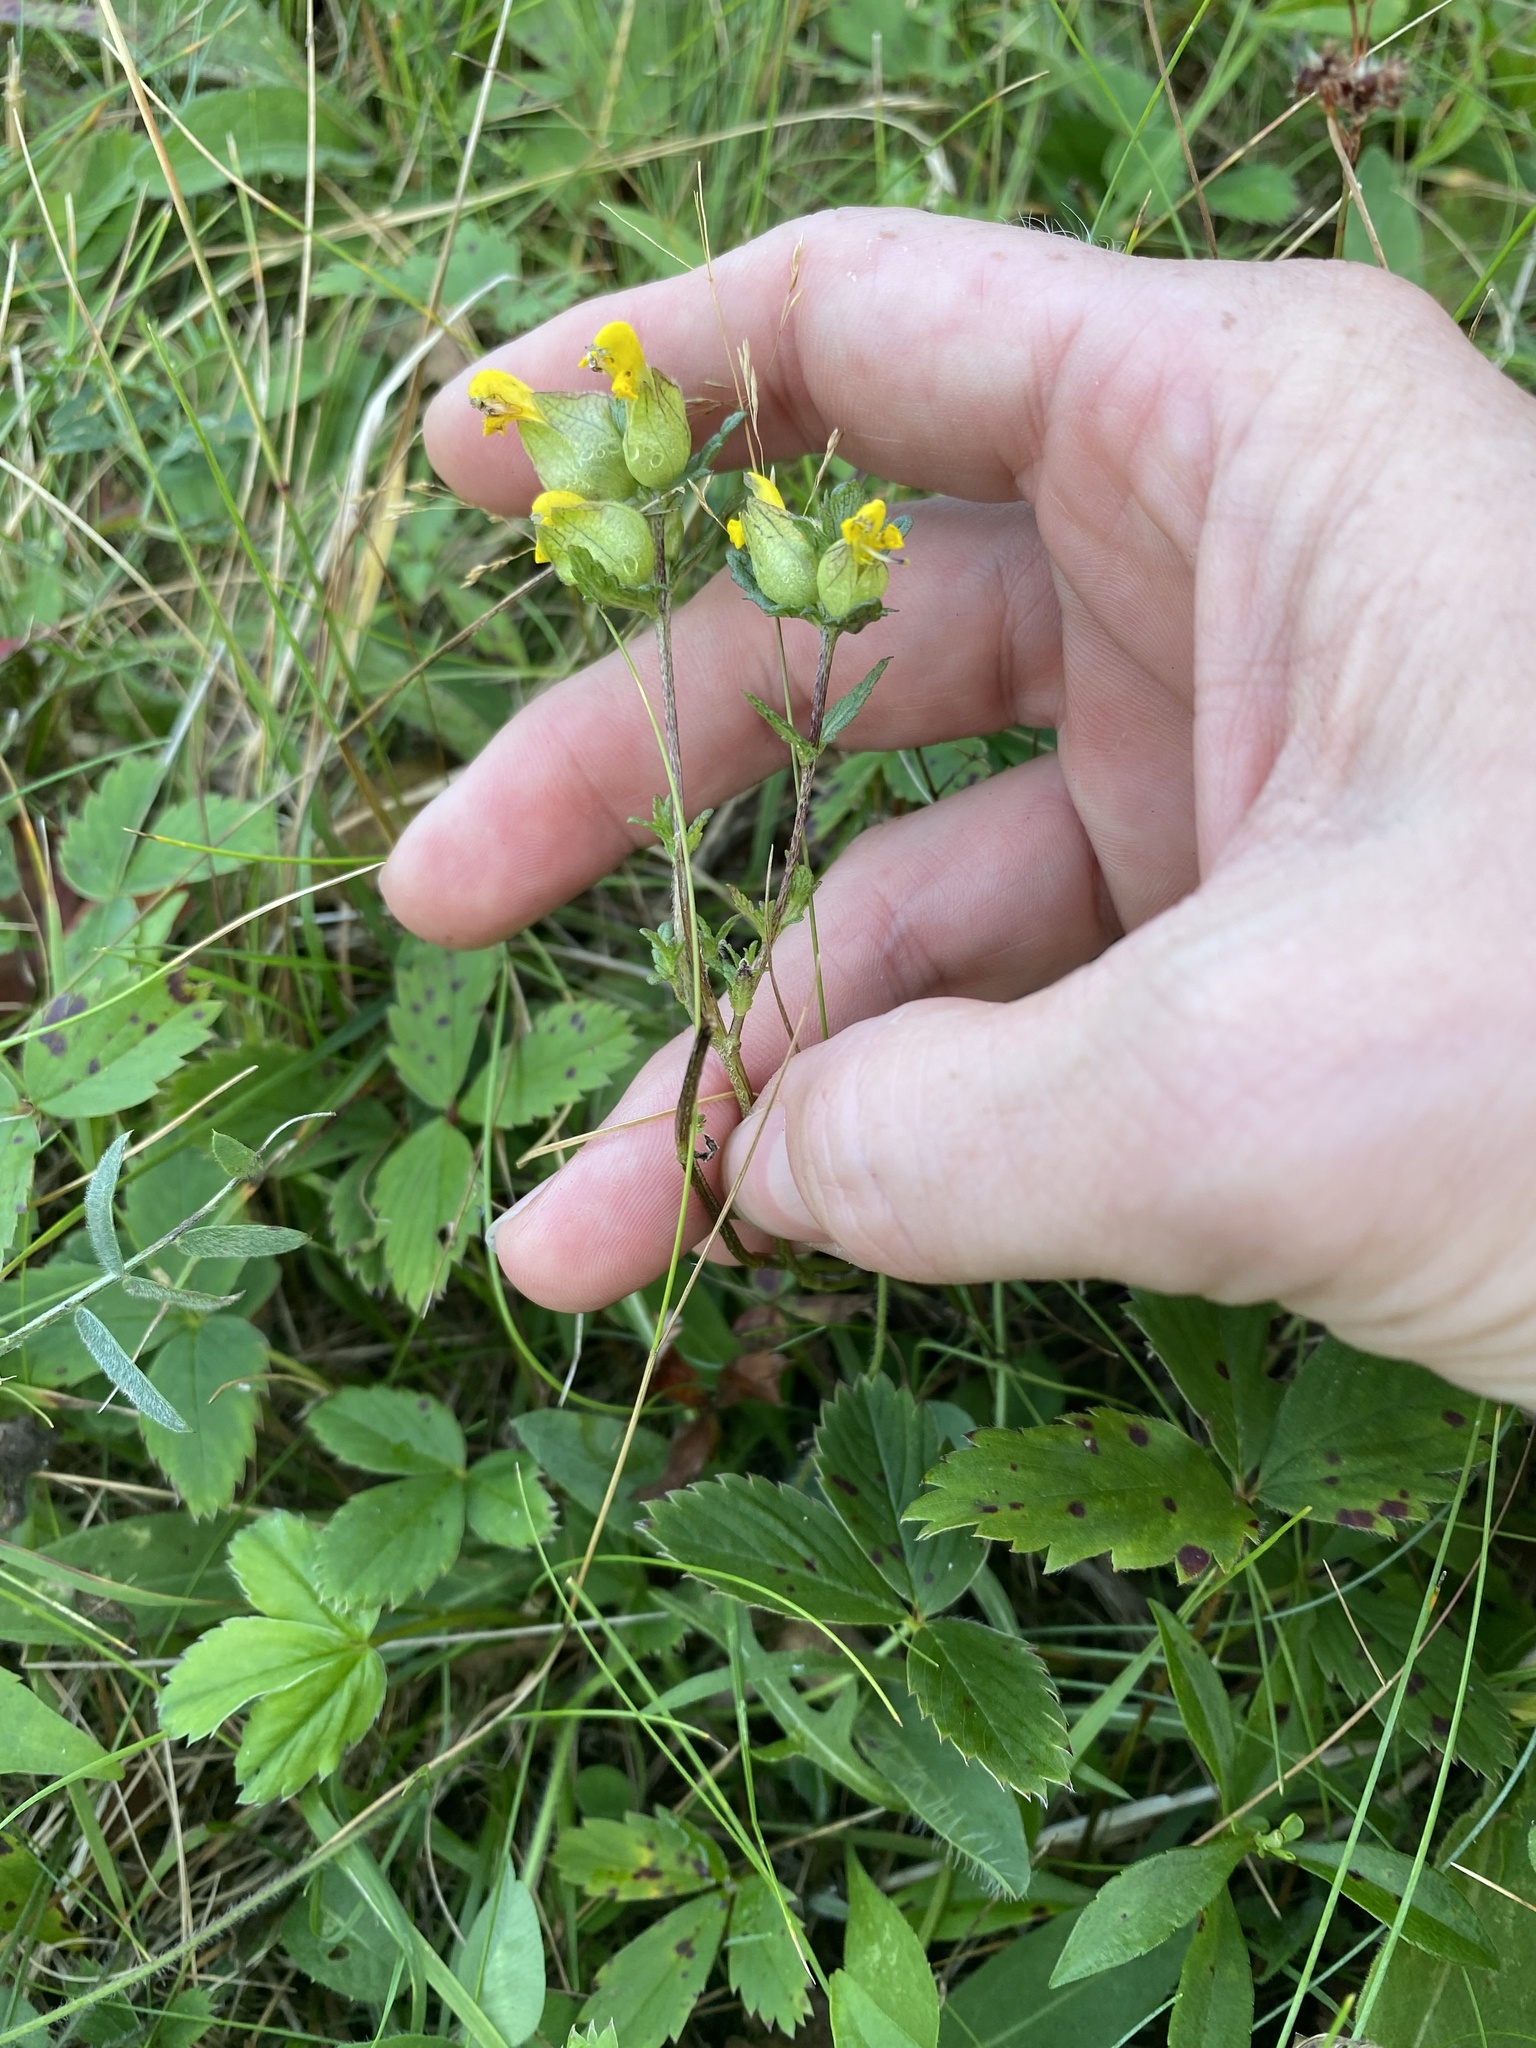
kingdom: Plantae
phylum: Tracheophyta
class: Magnoliopsida
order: Lamiales
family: Orobanchaceae
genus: Rhinanthus
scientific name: Rhinanthus minor
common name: Yellow-rattle
